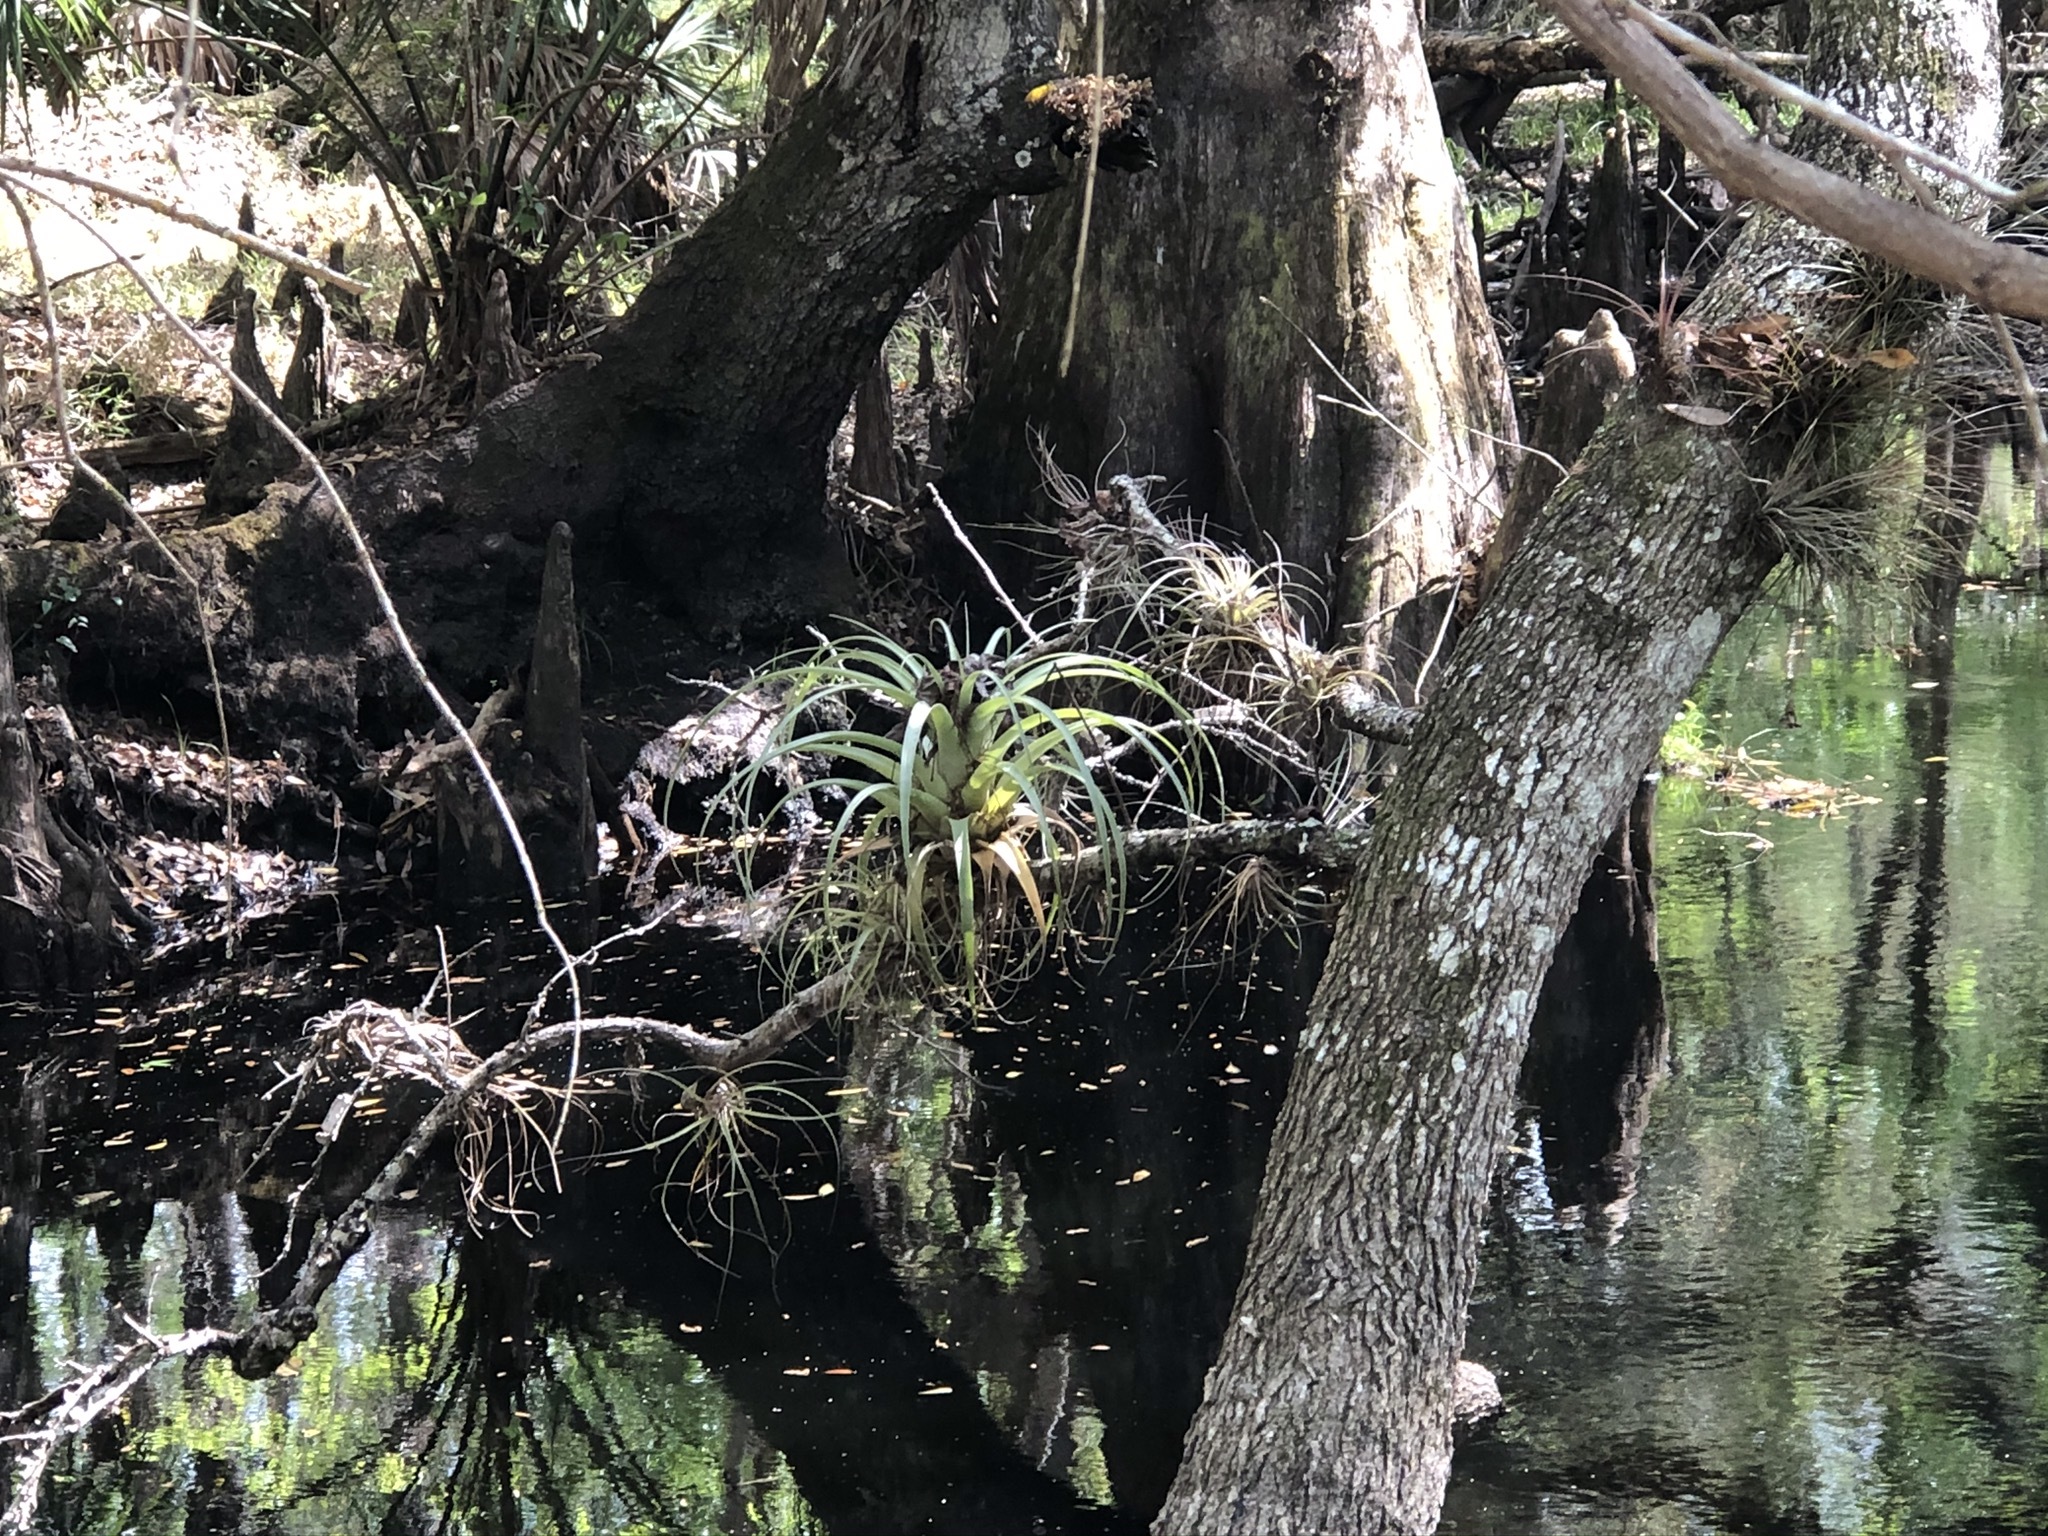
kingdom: Plantae
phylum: Tracheophyta
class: Liliopsida
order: Poales
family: Bromeliaceae
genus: Tillandsia
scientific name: Tillandsia utriculata
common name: Wild pine
